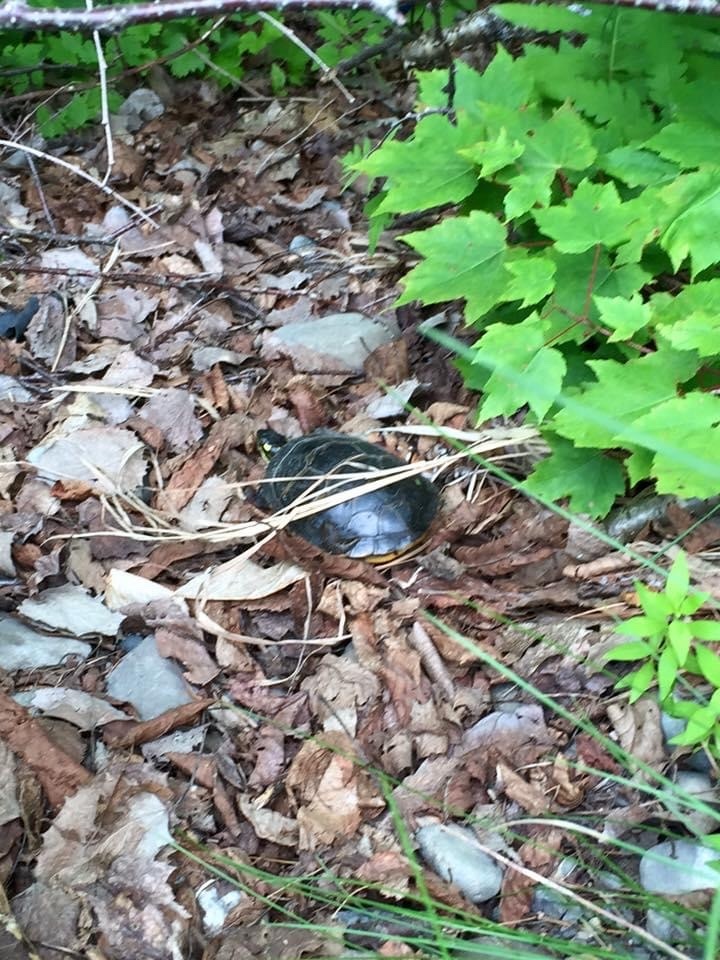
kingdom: Animalia
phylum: Chordata
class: Testudines
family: Emydidae
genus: Chrysemys
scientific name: Chrysemys picta
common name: Painted turtle
